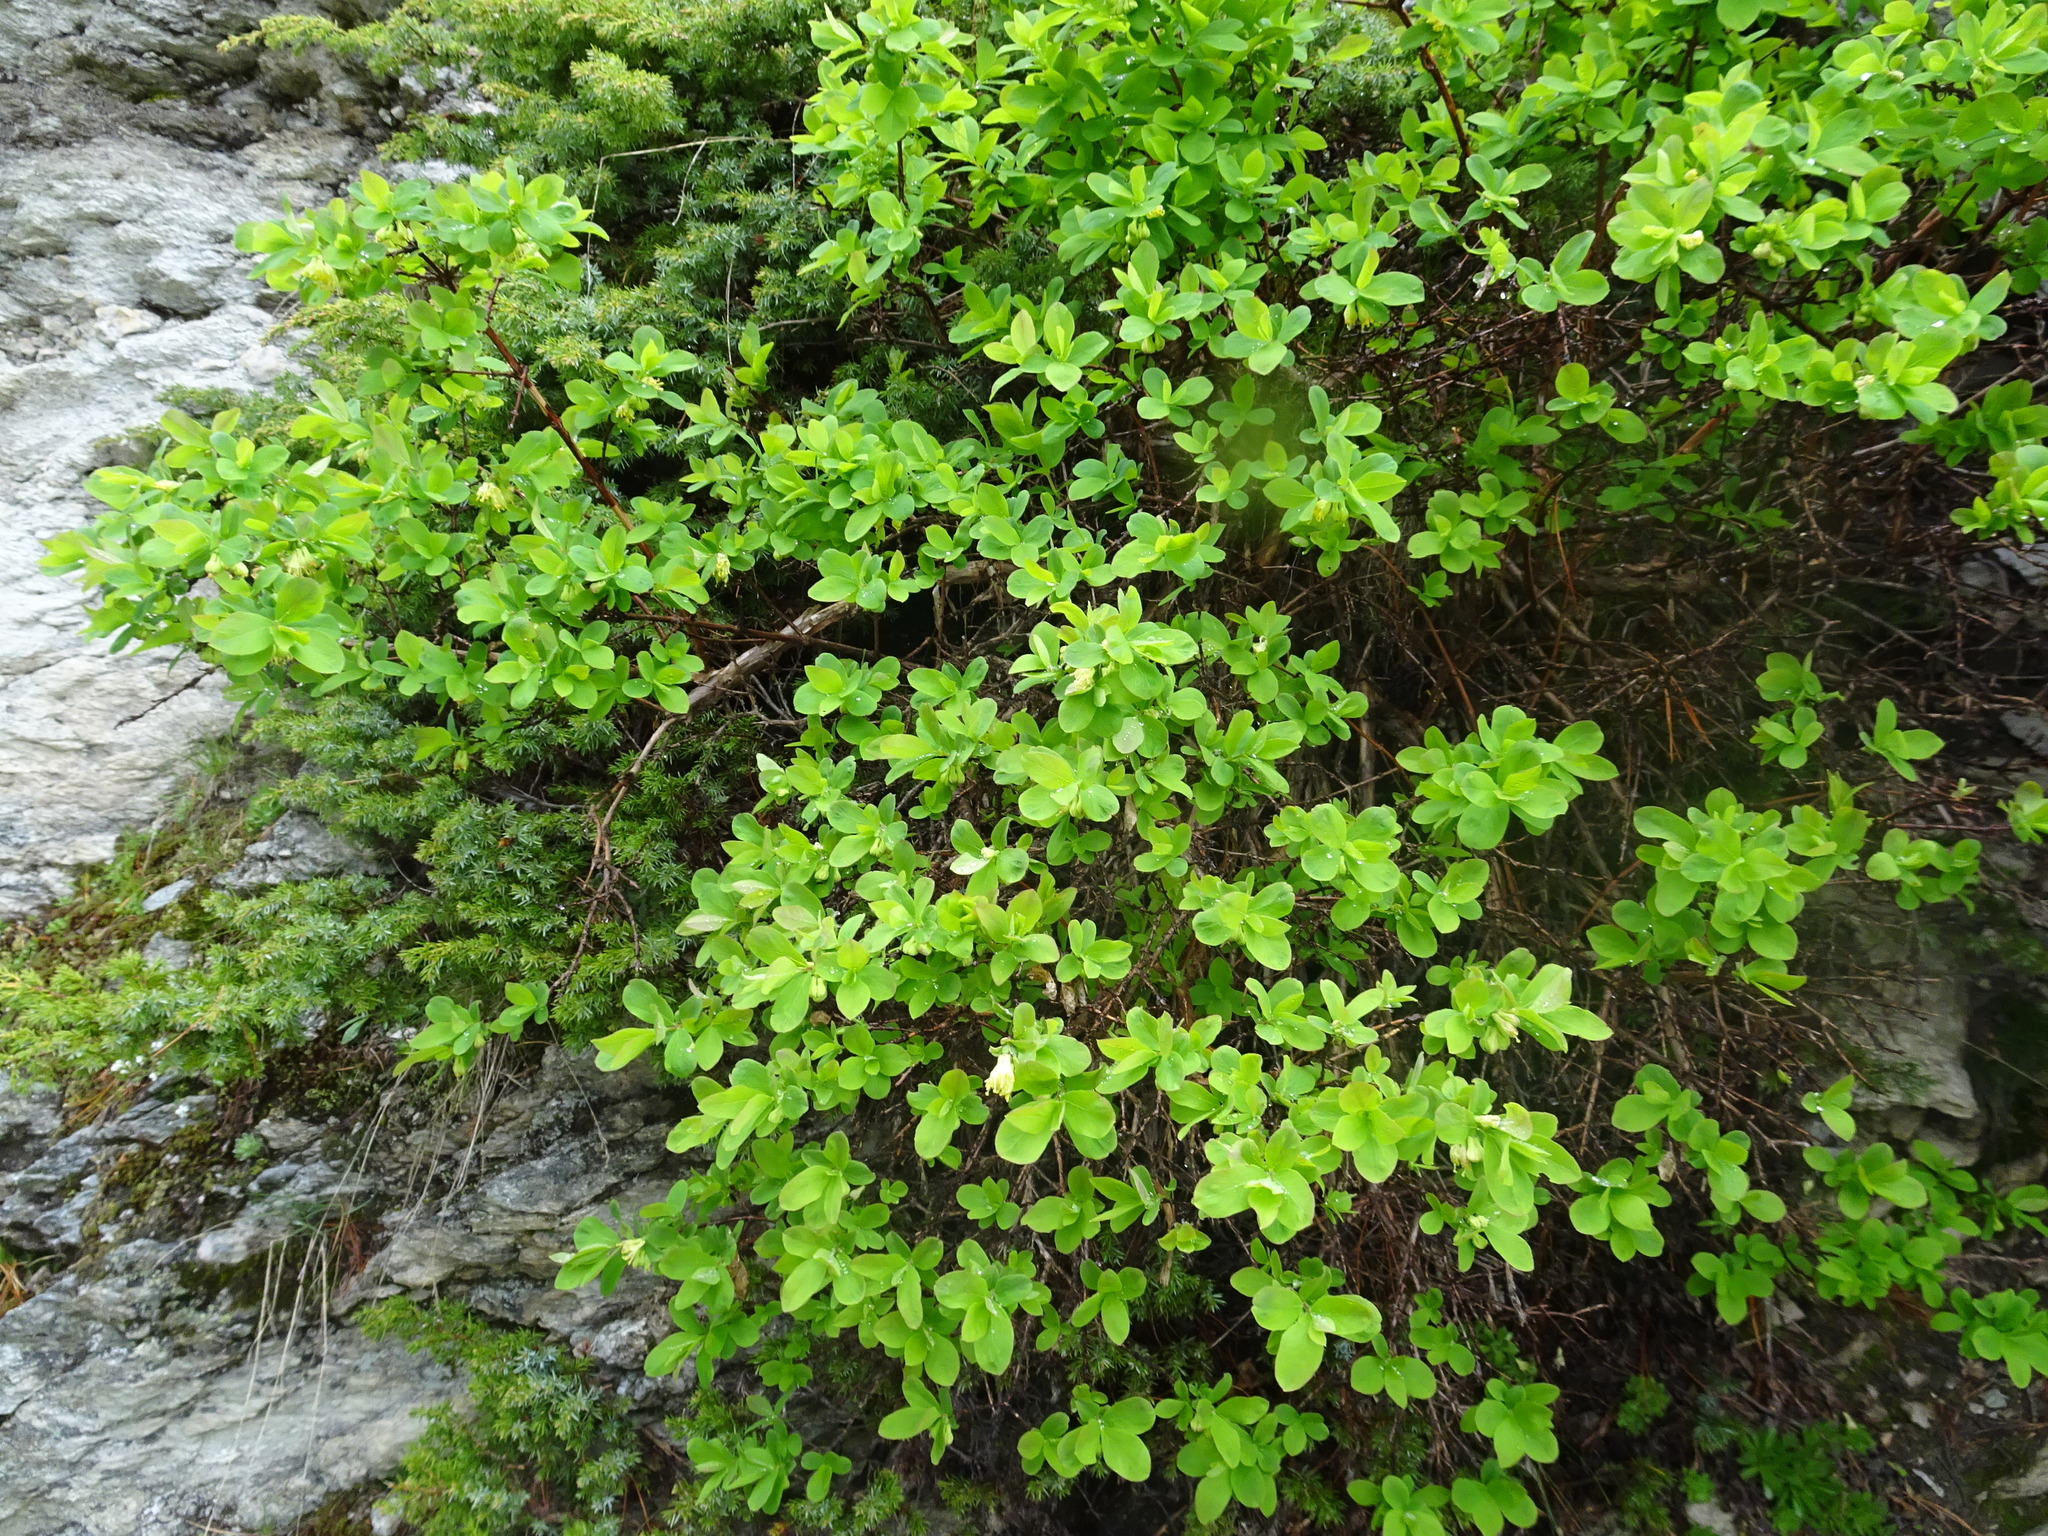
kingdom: Plantae
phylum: Tracheophyta
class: Magnoliopsida
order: Dipsacales
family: Caprifoliaceae
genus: Lonicera
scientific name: Lonicera caerulea
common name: Blue honeysuckle
